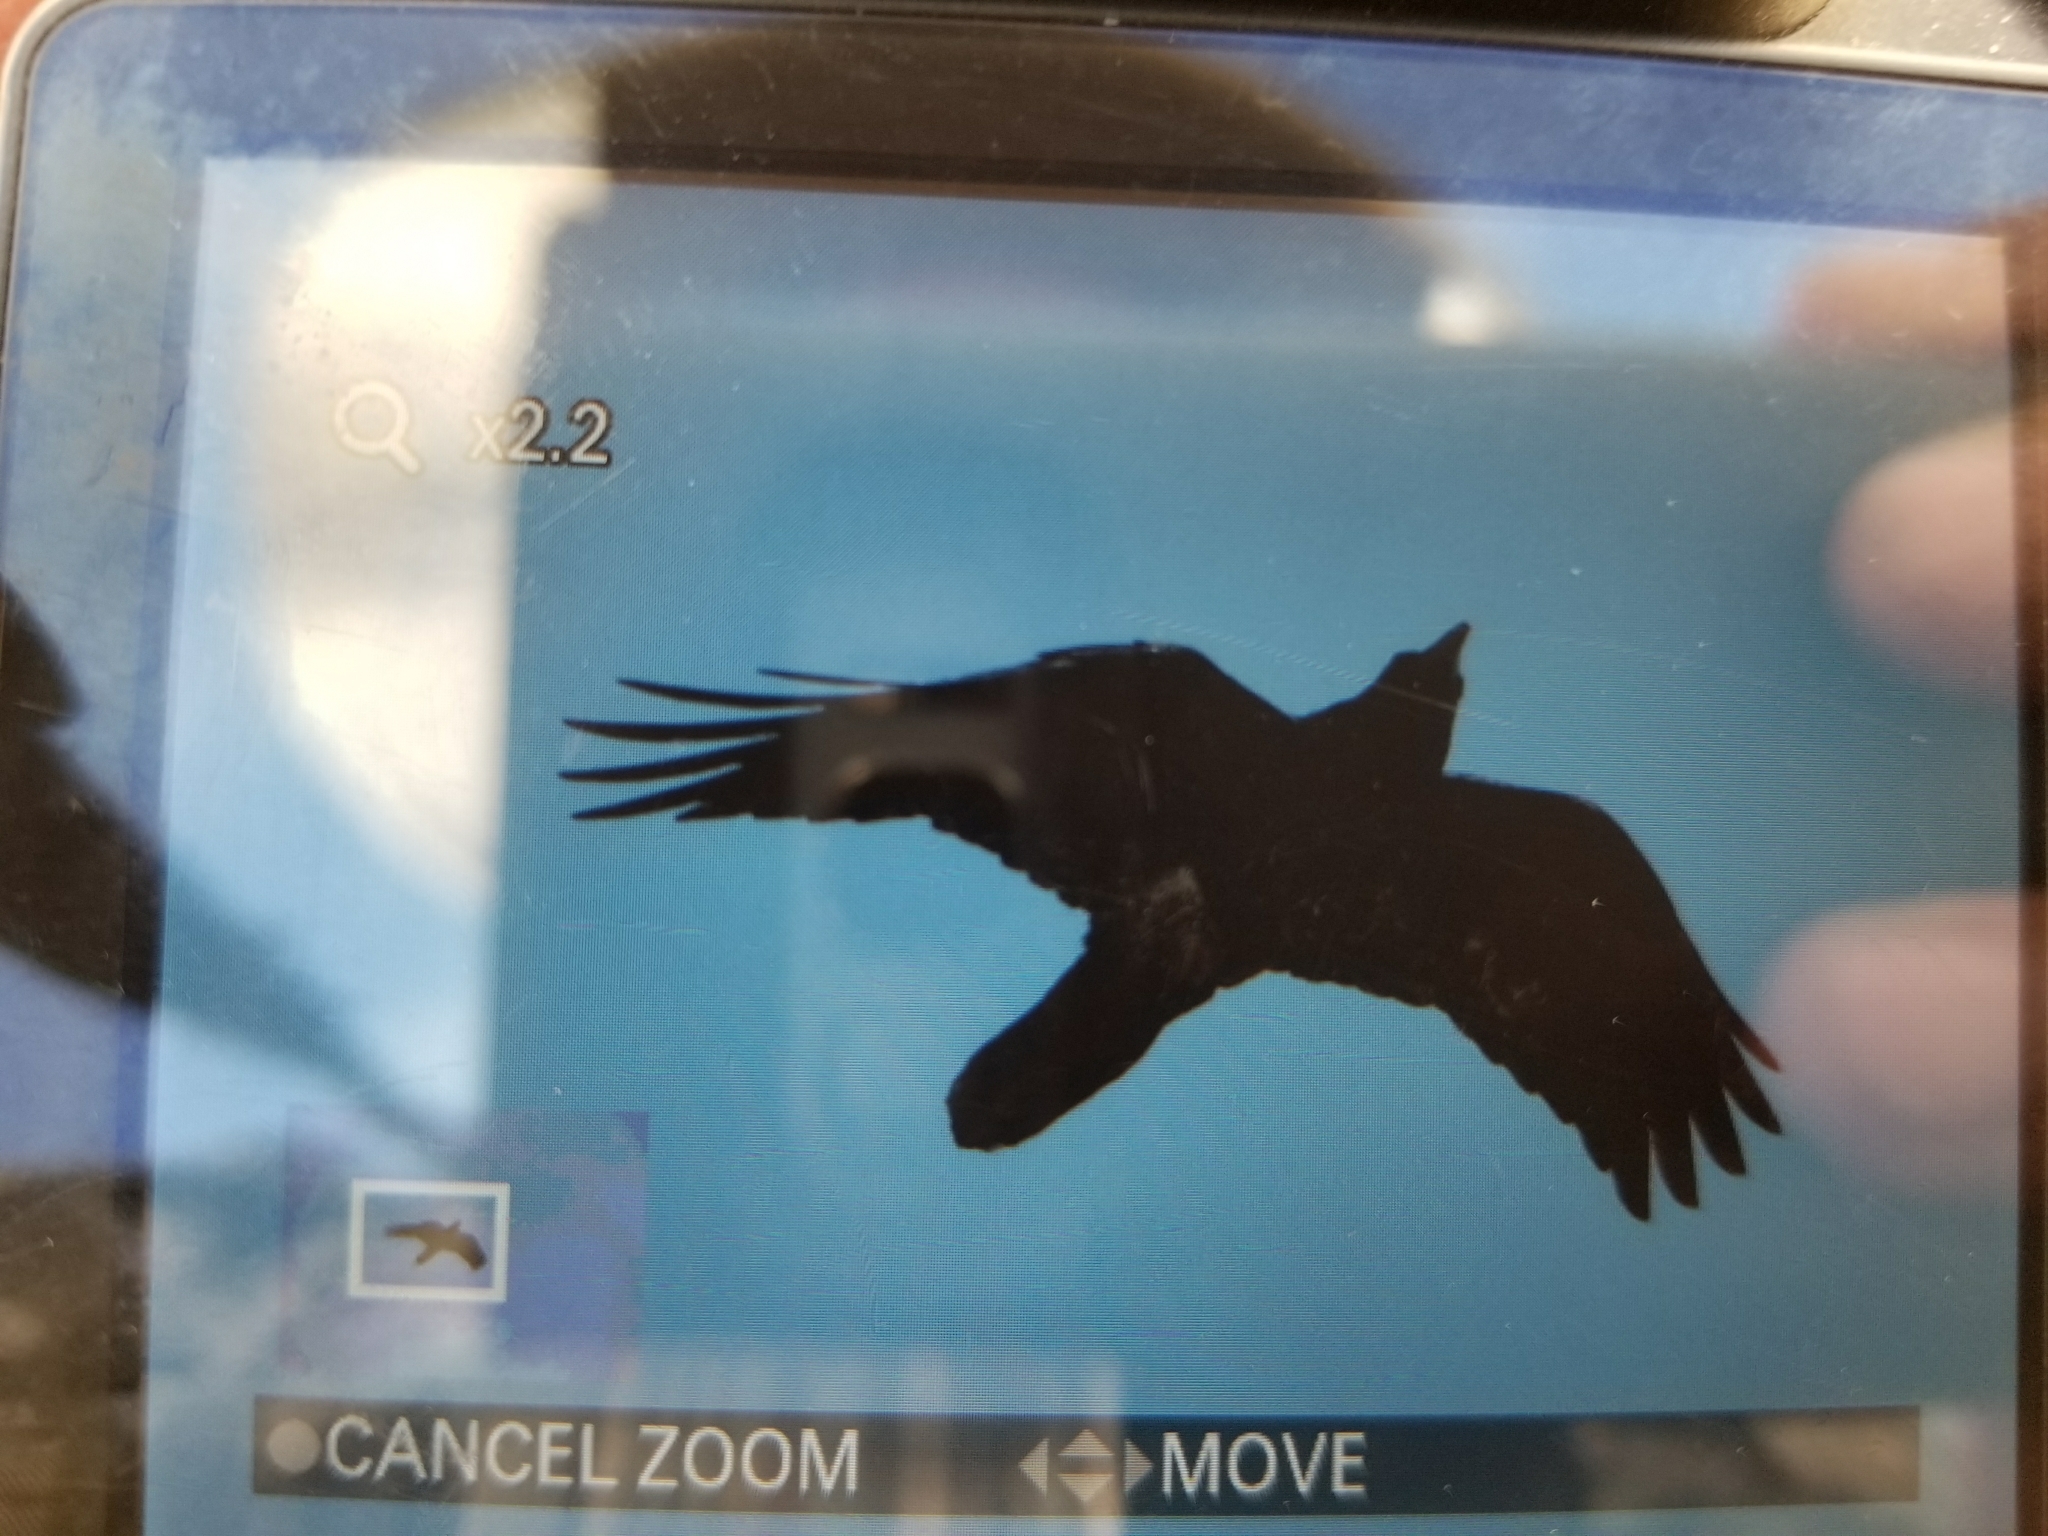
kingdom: Animalia
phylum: Chordata
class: Aves
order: Passeriformes
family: Corvidae
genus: Corvus
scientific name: Corvus corax
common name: Common raven
